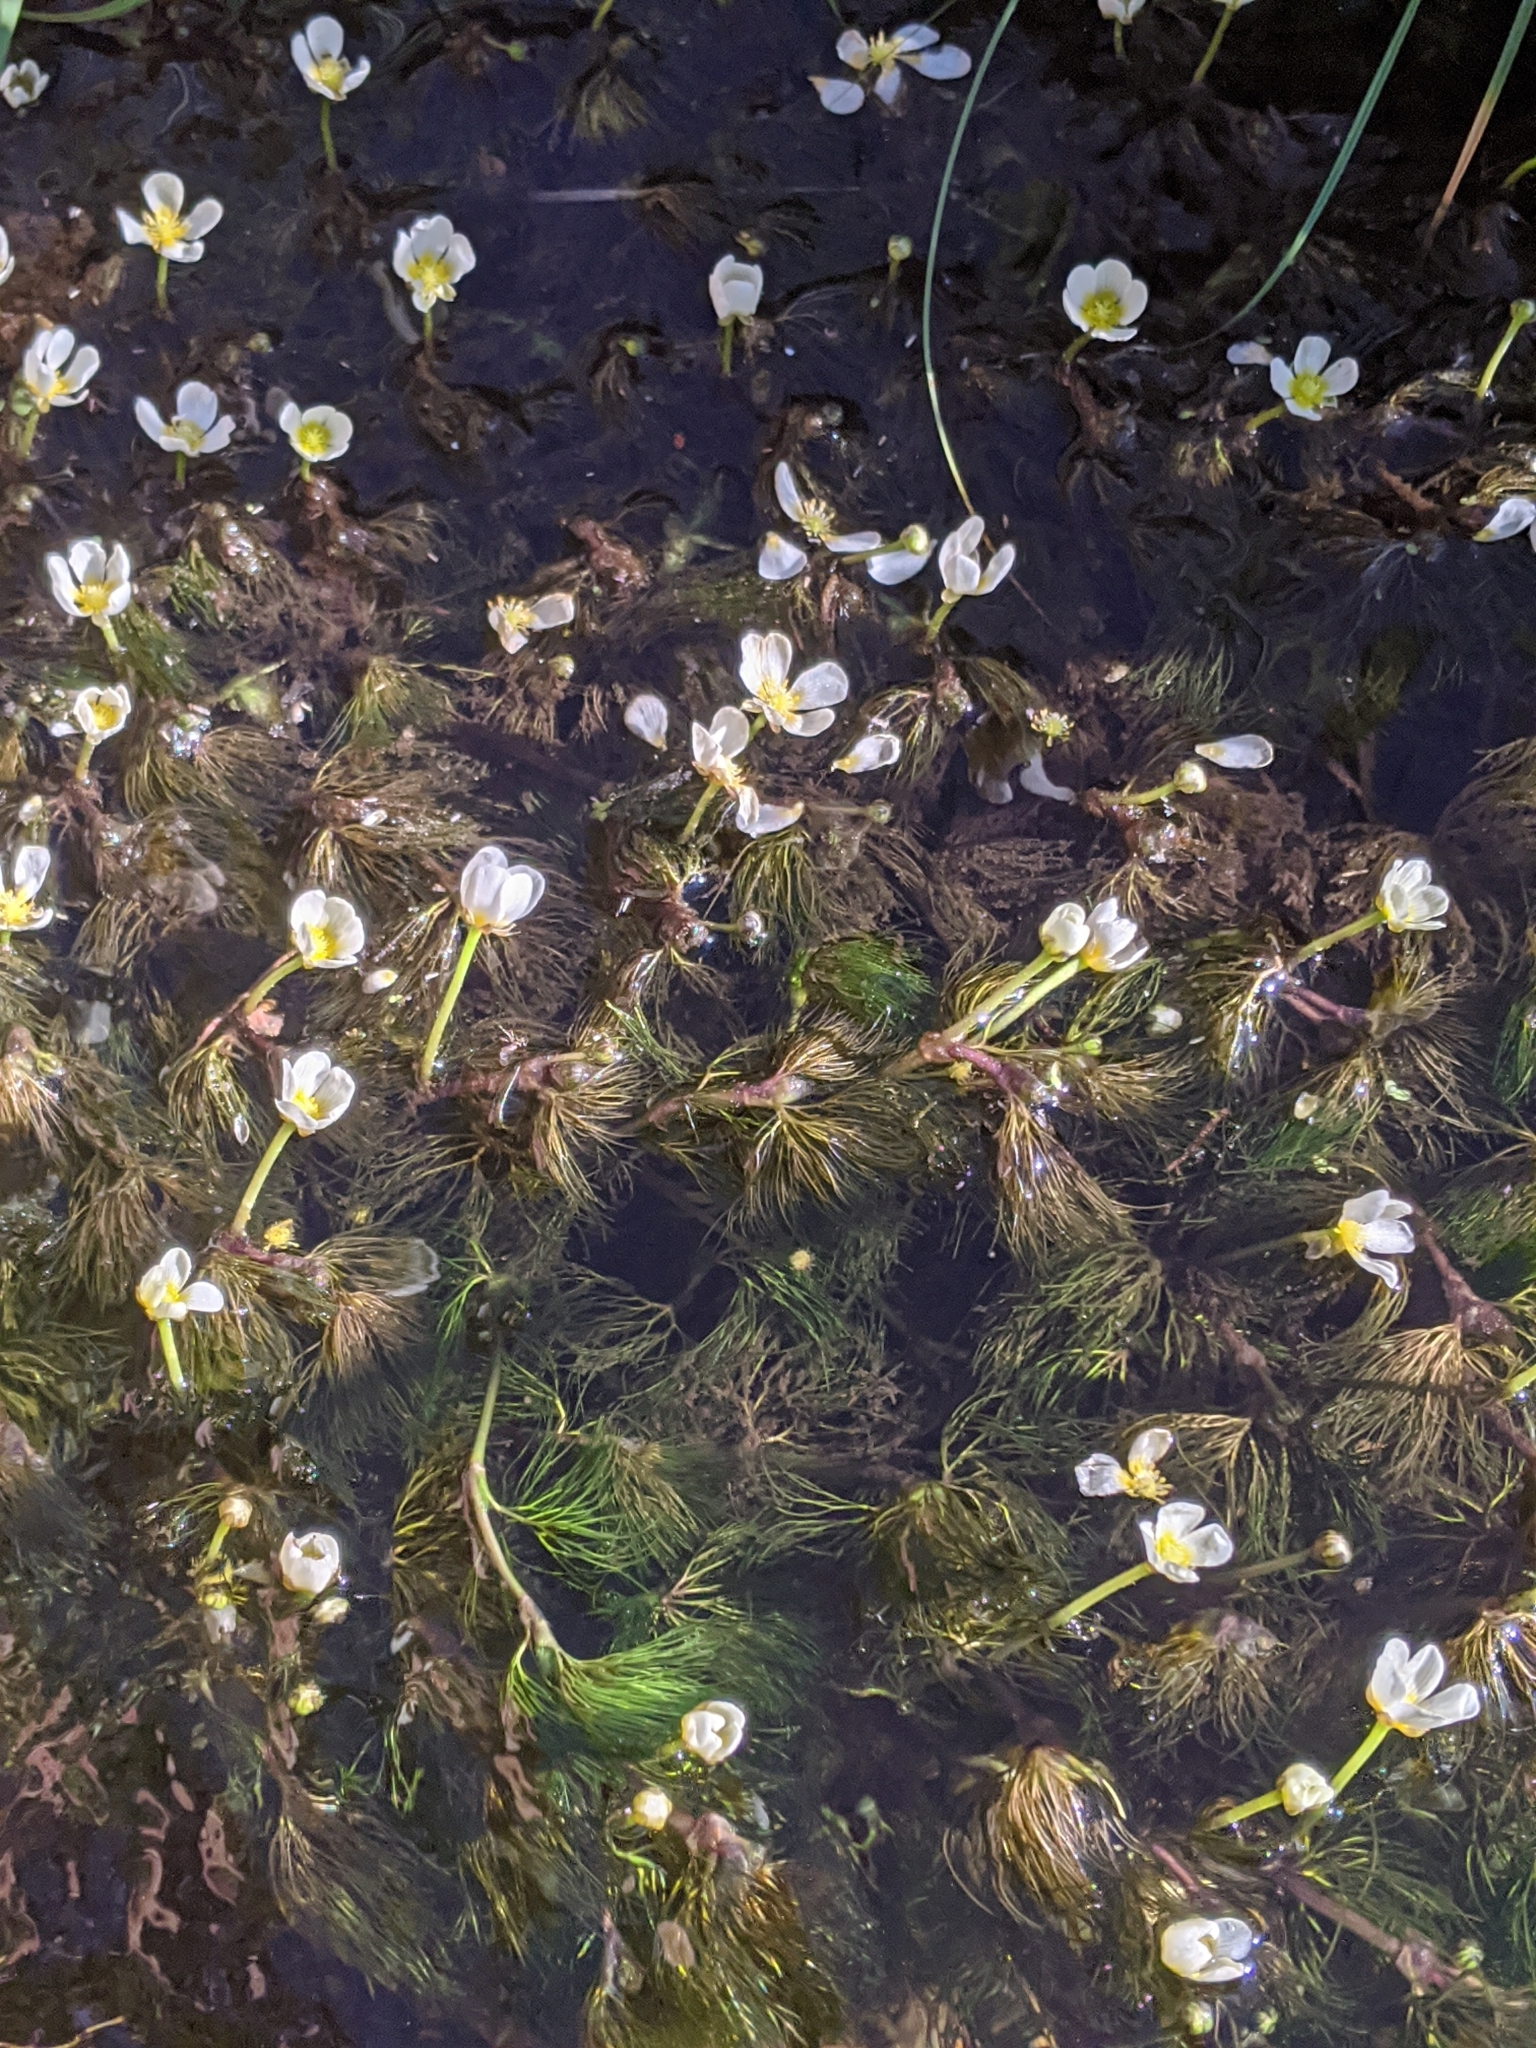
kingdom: Plantae
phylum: Tracheophyta
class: Magnoliopsida
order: Ranunculales
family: Ranunculaceae
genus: Ranunculus
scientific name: Ranunculus trichophyllus
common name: Thread-leaved water-crowfoot
